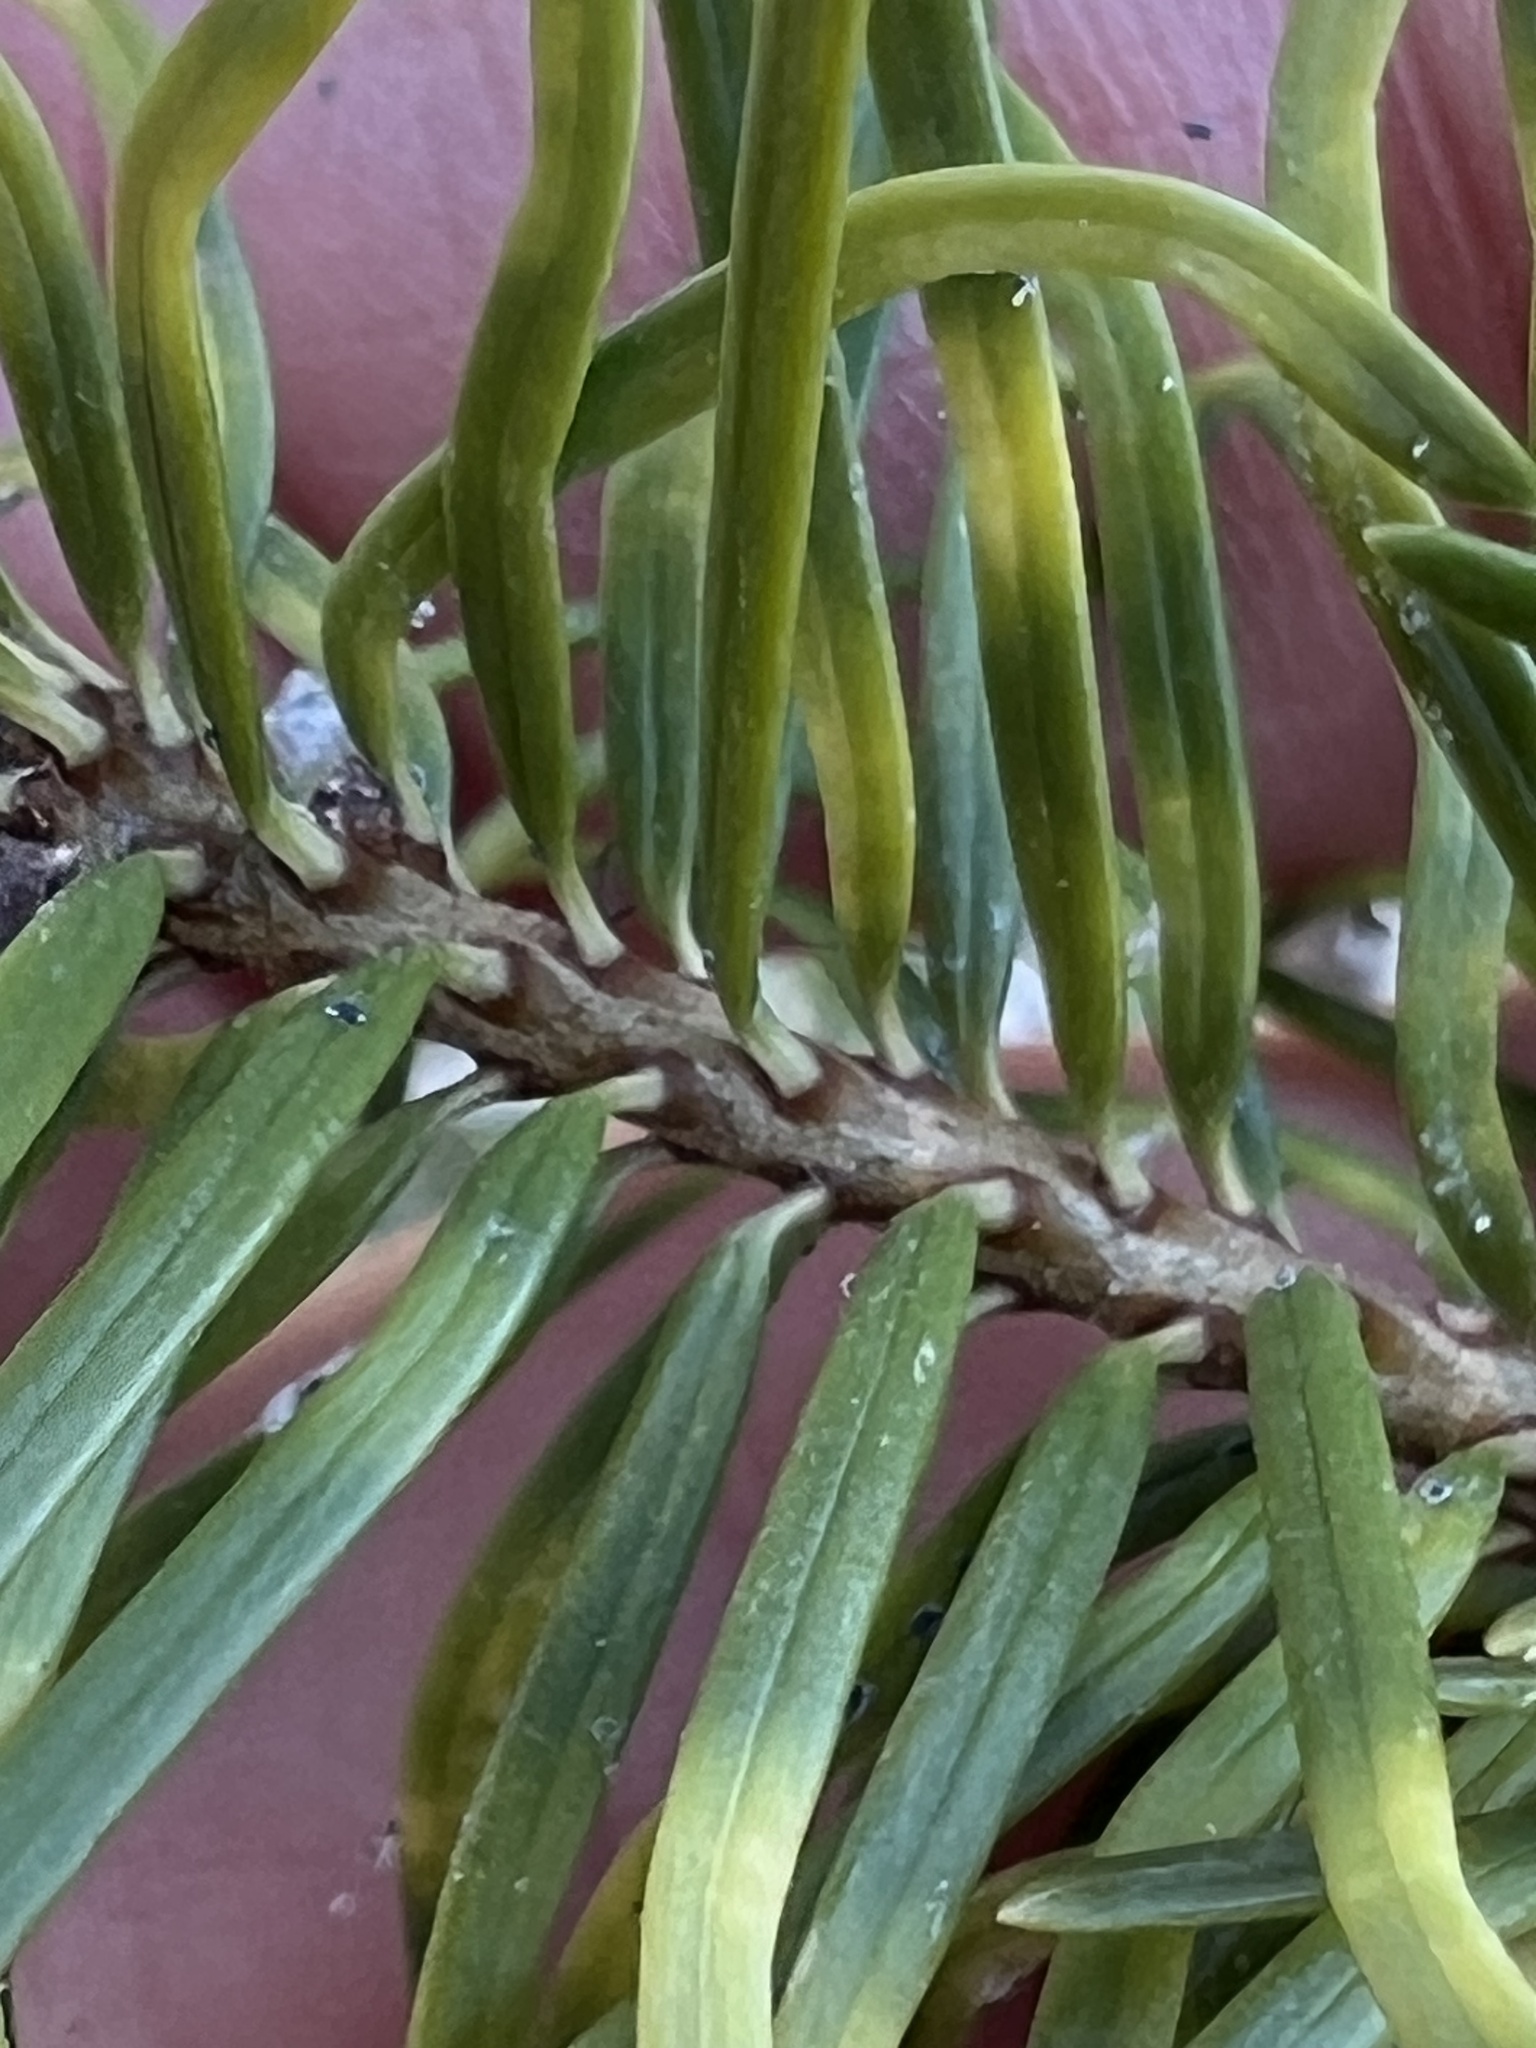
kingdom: Plantae
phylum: Tracheophyta
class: Pinopsida
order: Pinales
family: Pinaceae
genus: Pseudotsuga
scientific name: Pseudotsuga menziesii
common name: Douglas fir
